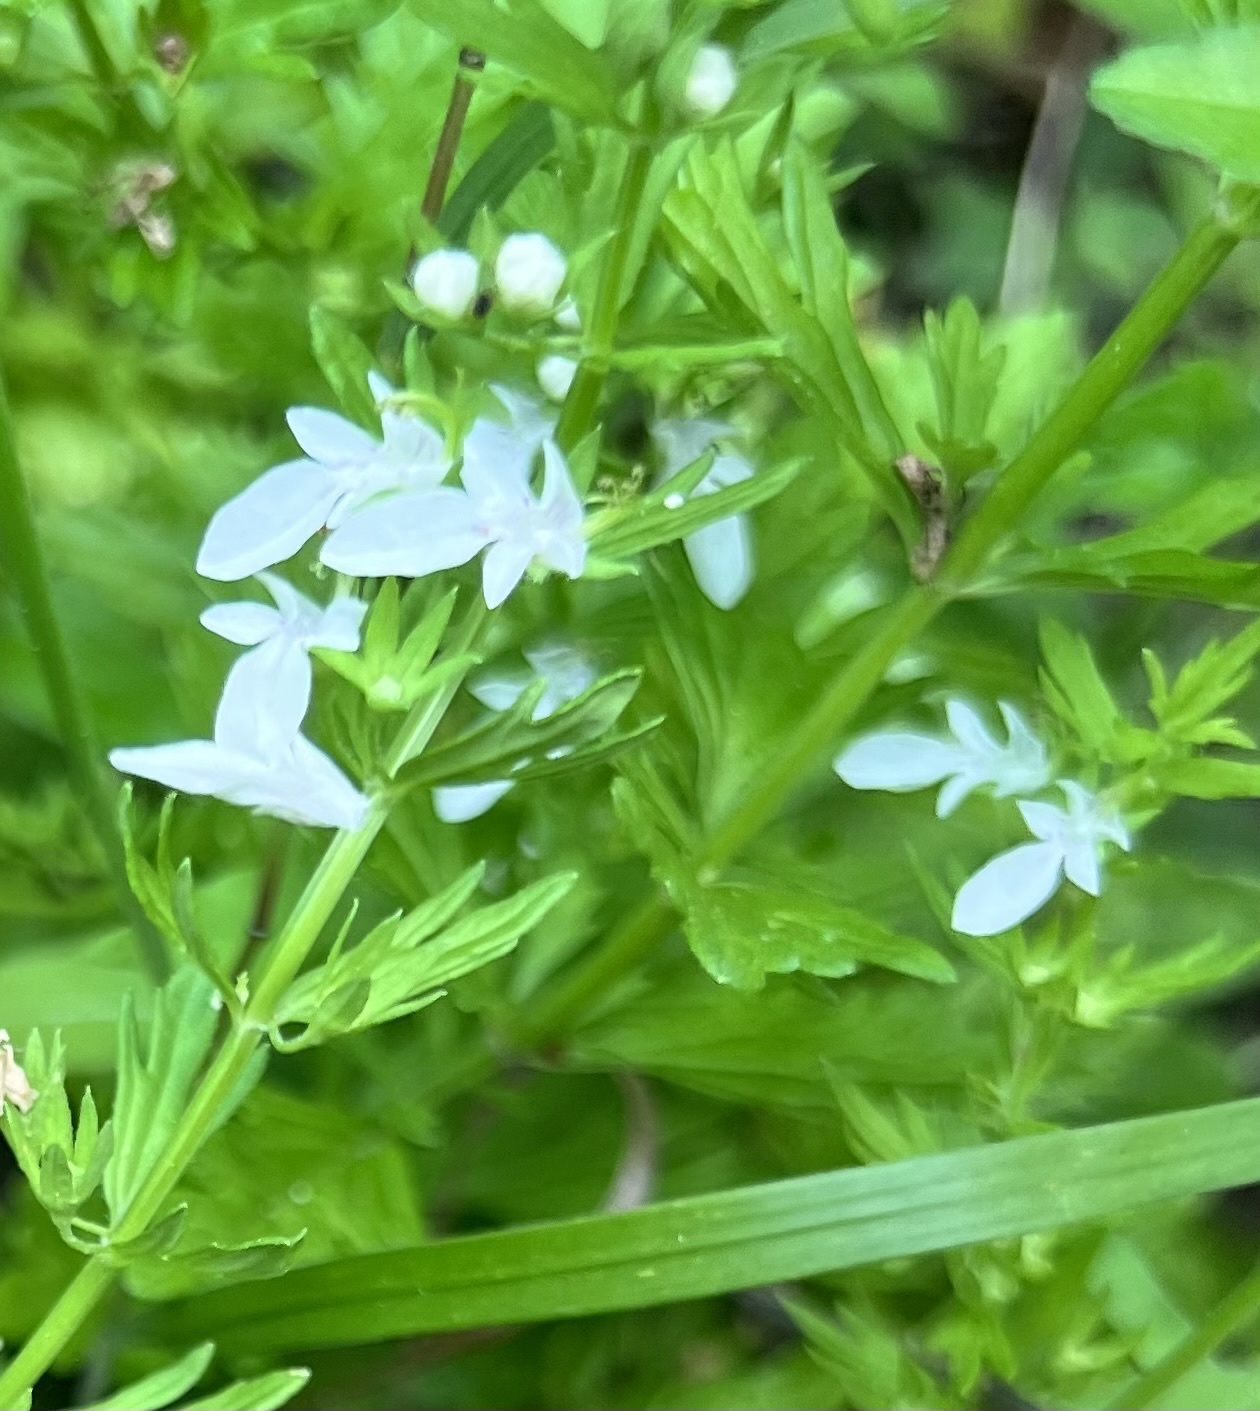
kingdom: Plantae
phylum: Tracheophyta
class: Magnoliopsida
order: Lamiales
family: Lamiaceae
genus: Teucrium
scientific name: Teucrium cubense
